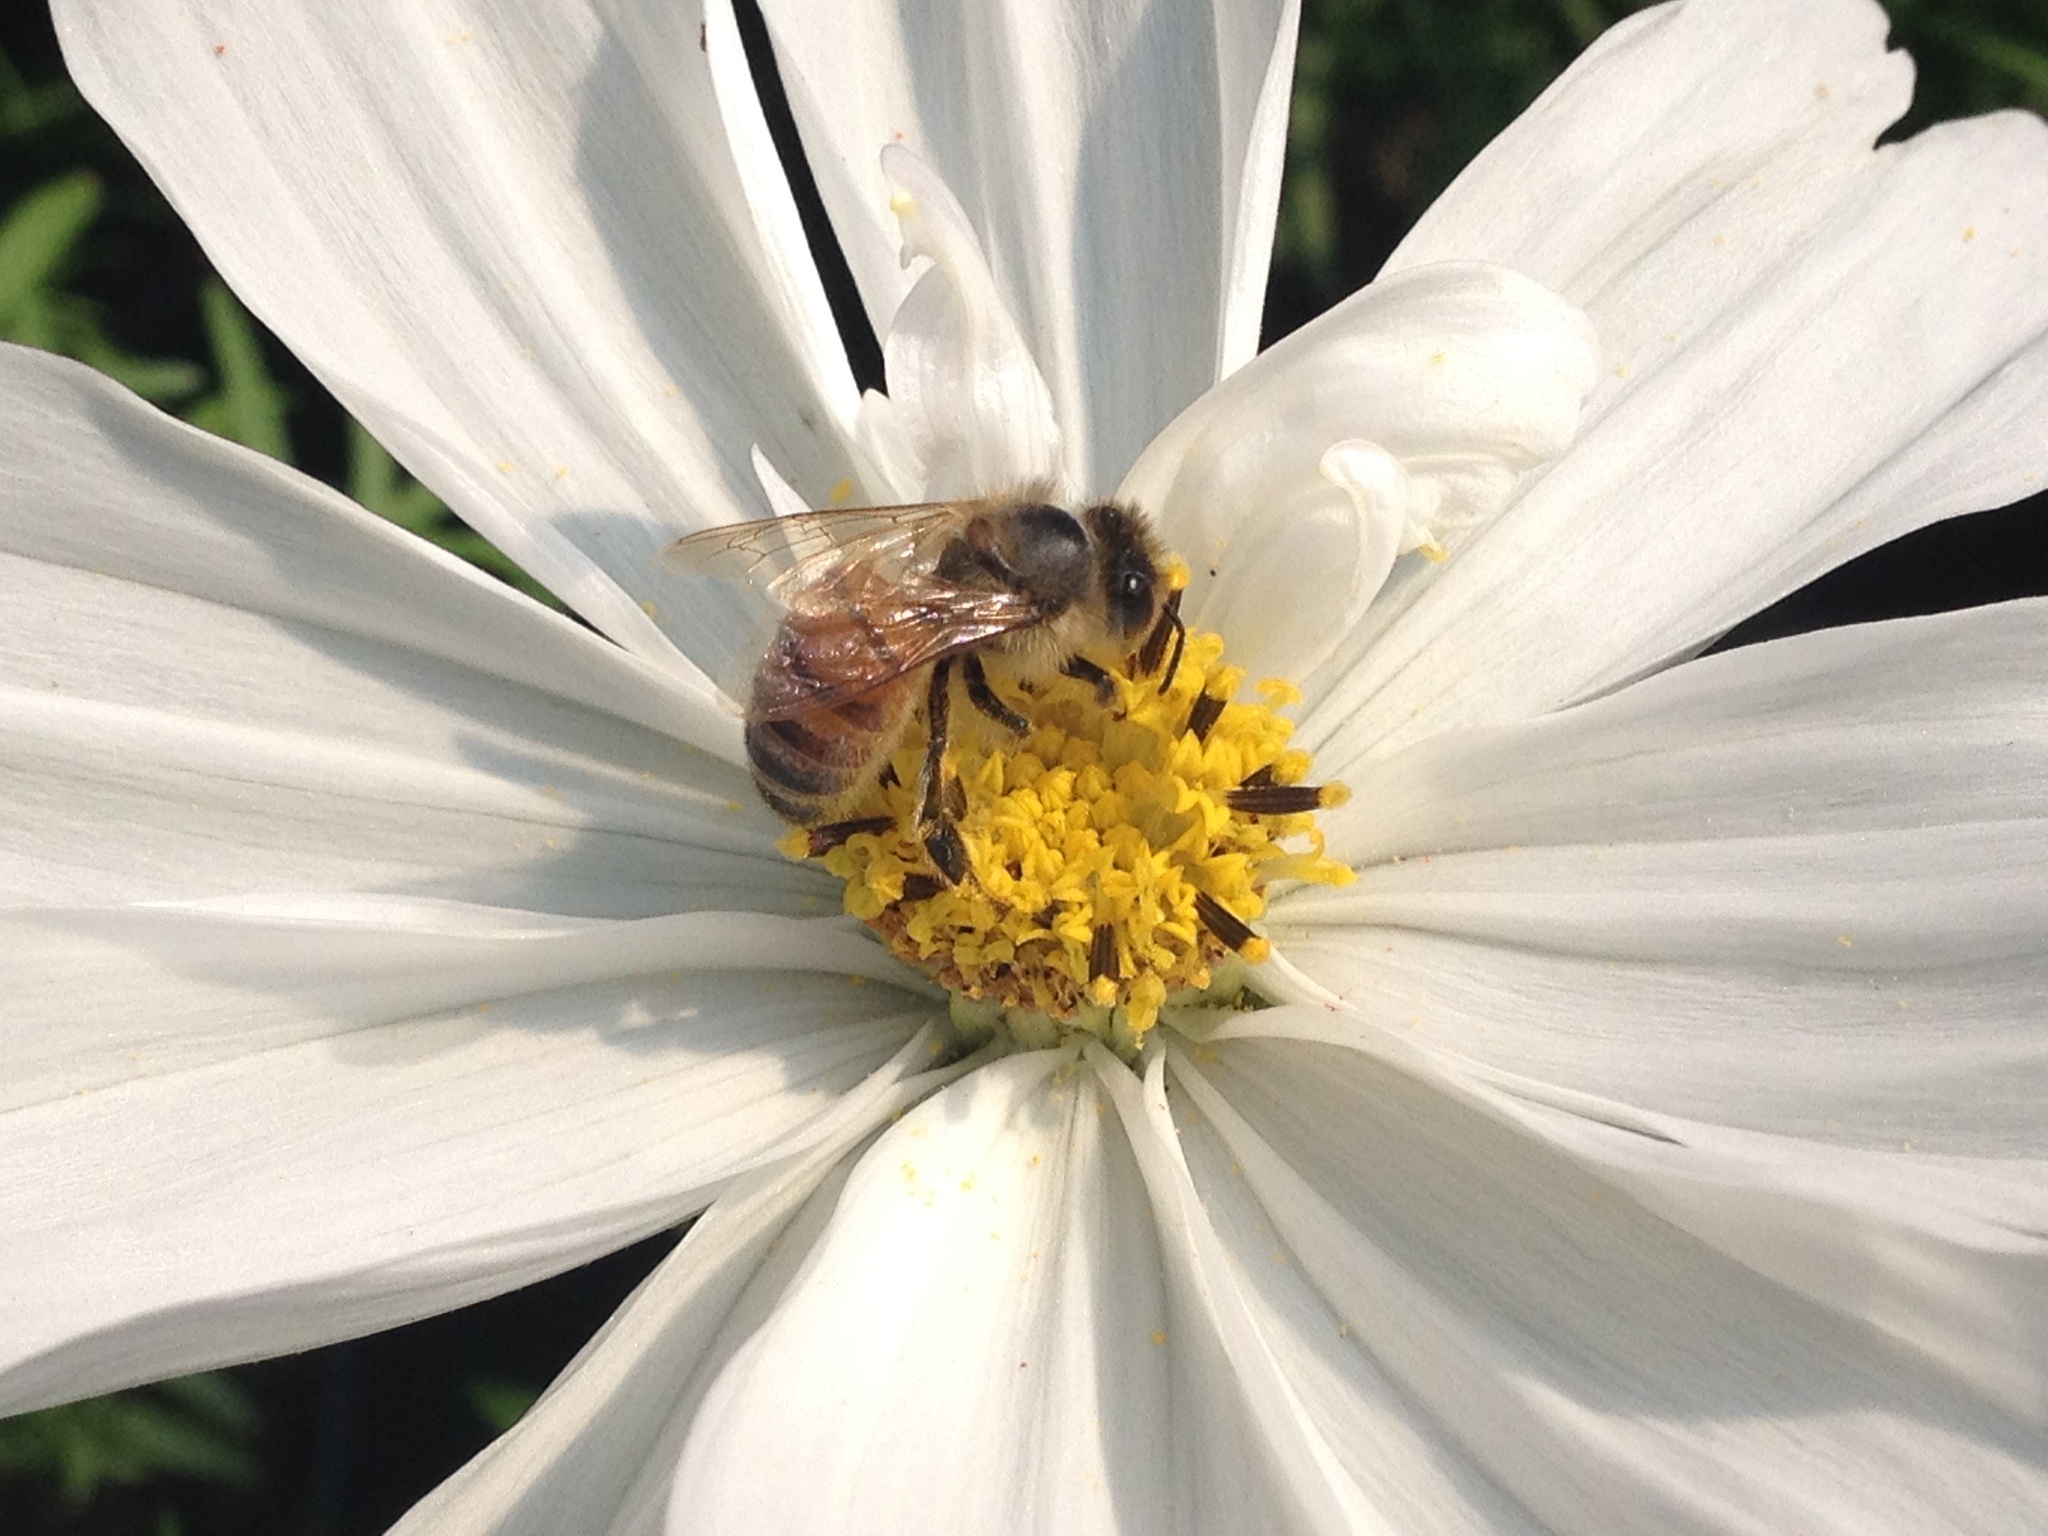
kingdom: Animalia
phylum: Arthropoda
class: Insecta
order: Hymenoptera
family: Apidae
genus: Apis
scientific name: Apis mellifera
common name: Honey bee
